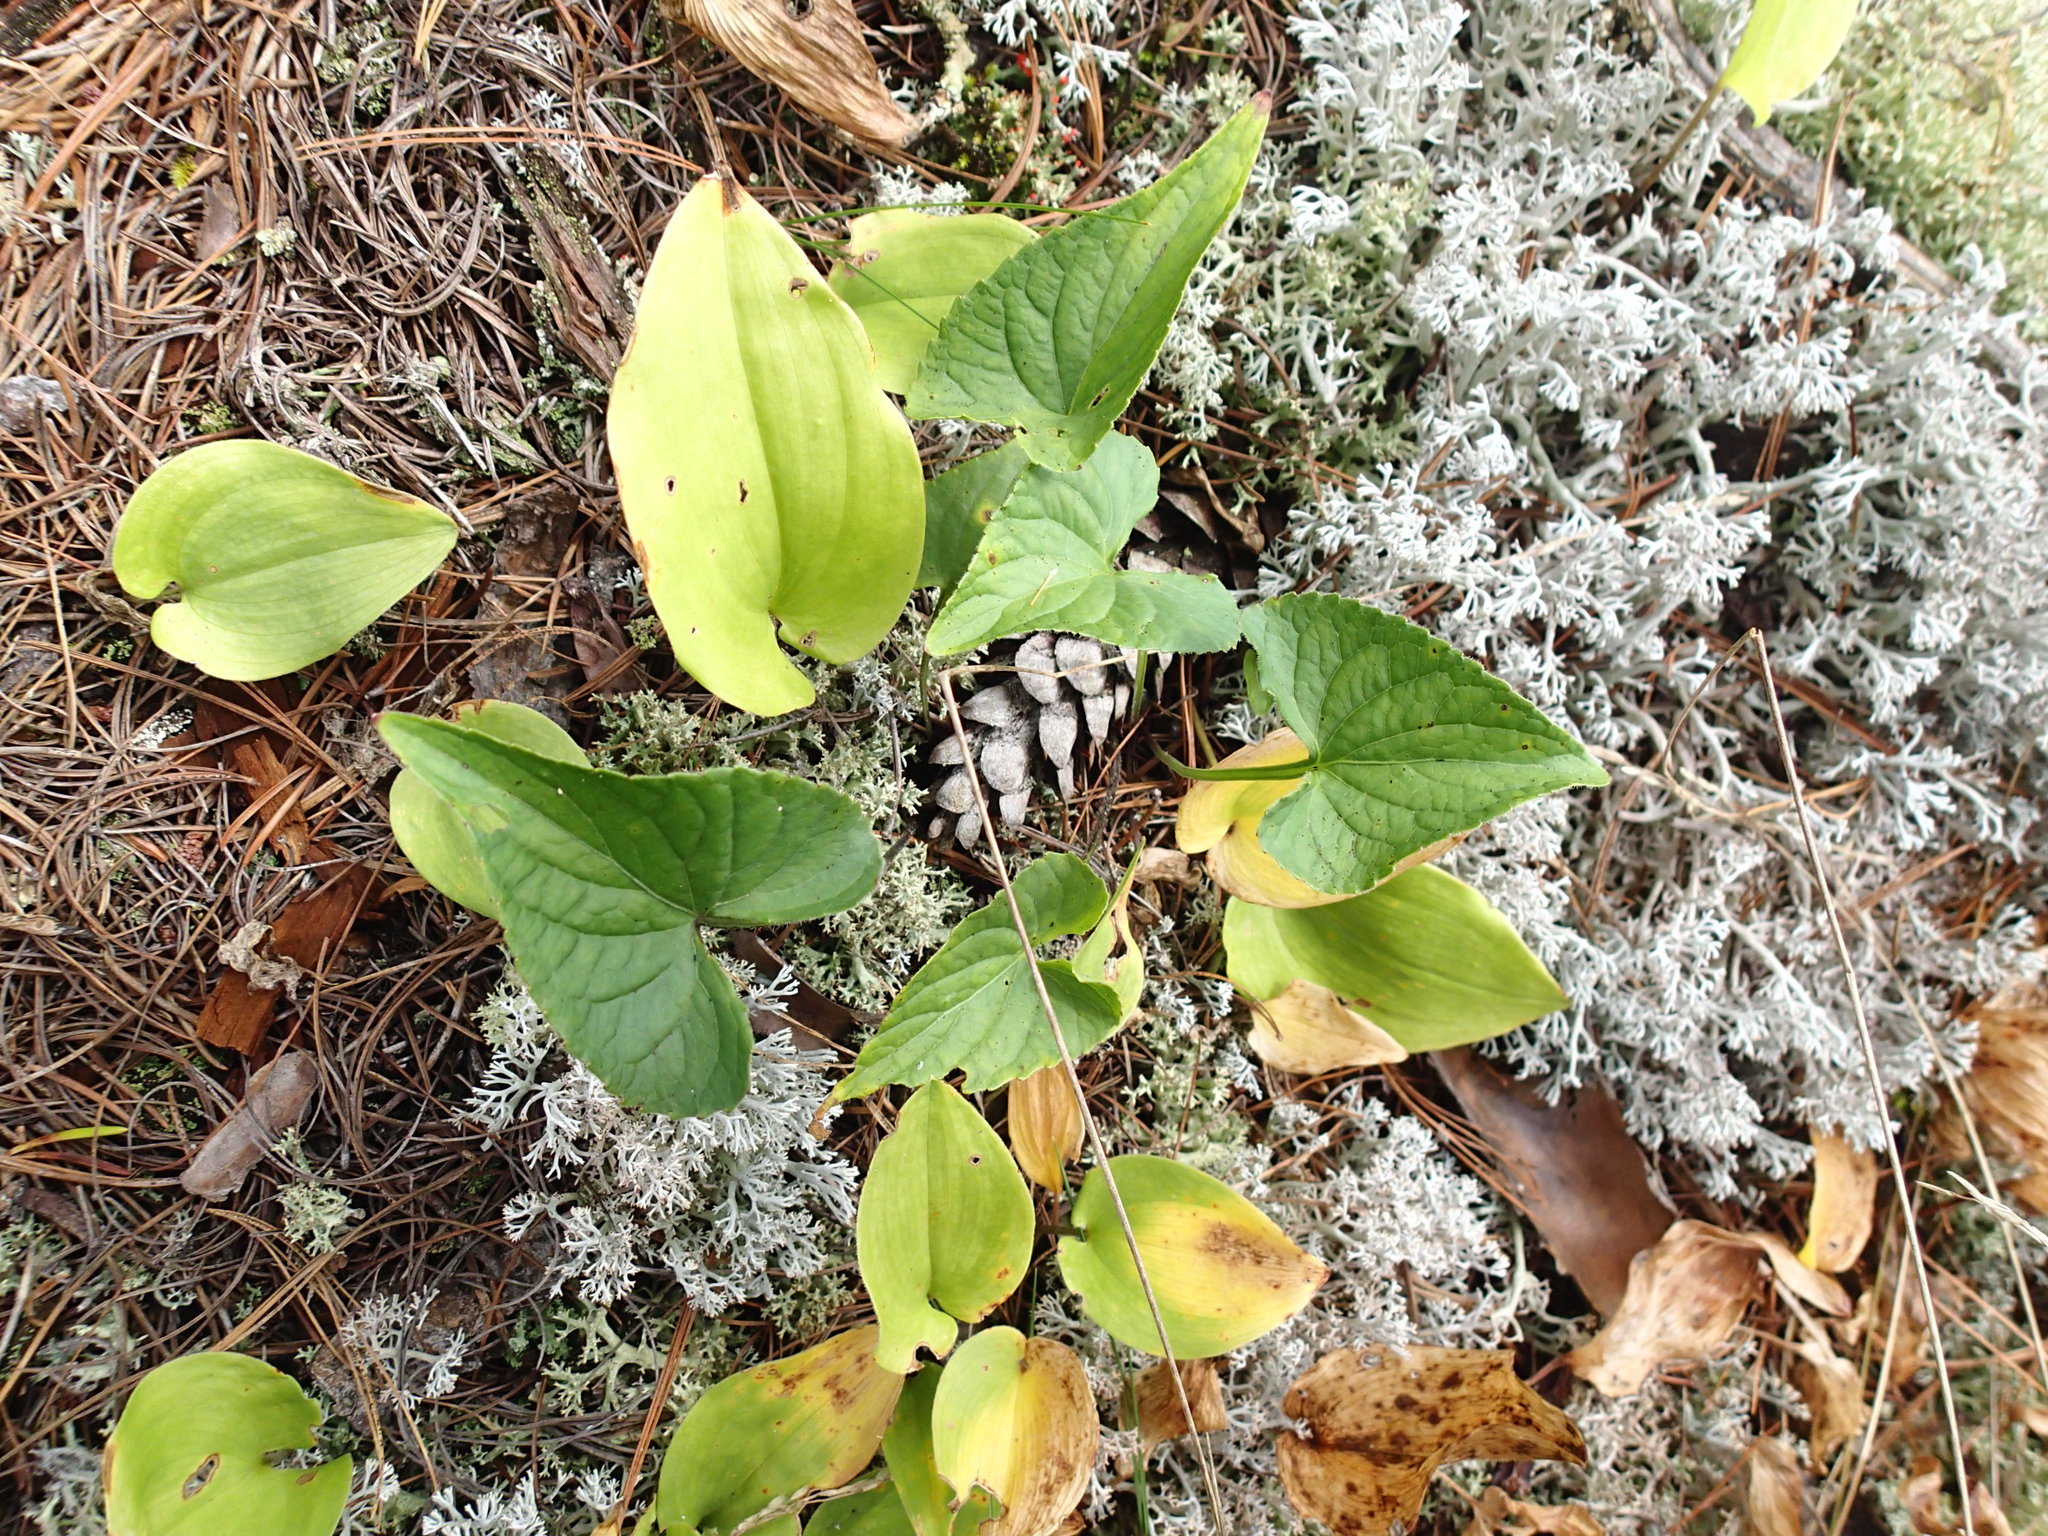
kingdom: Plantae
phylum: Tracheophyta
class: Liliopsida
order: Asparagales
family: Asparagaceae
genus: Maianthemum
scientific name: Maianthemum canadense
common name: False lily-of-the-valley
